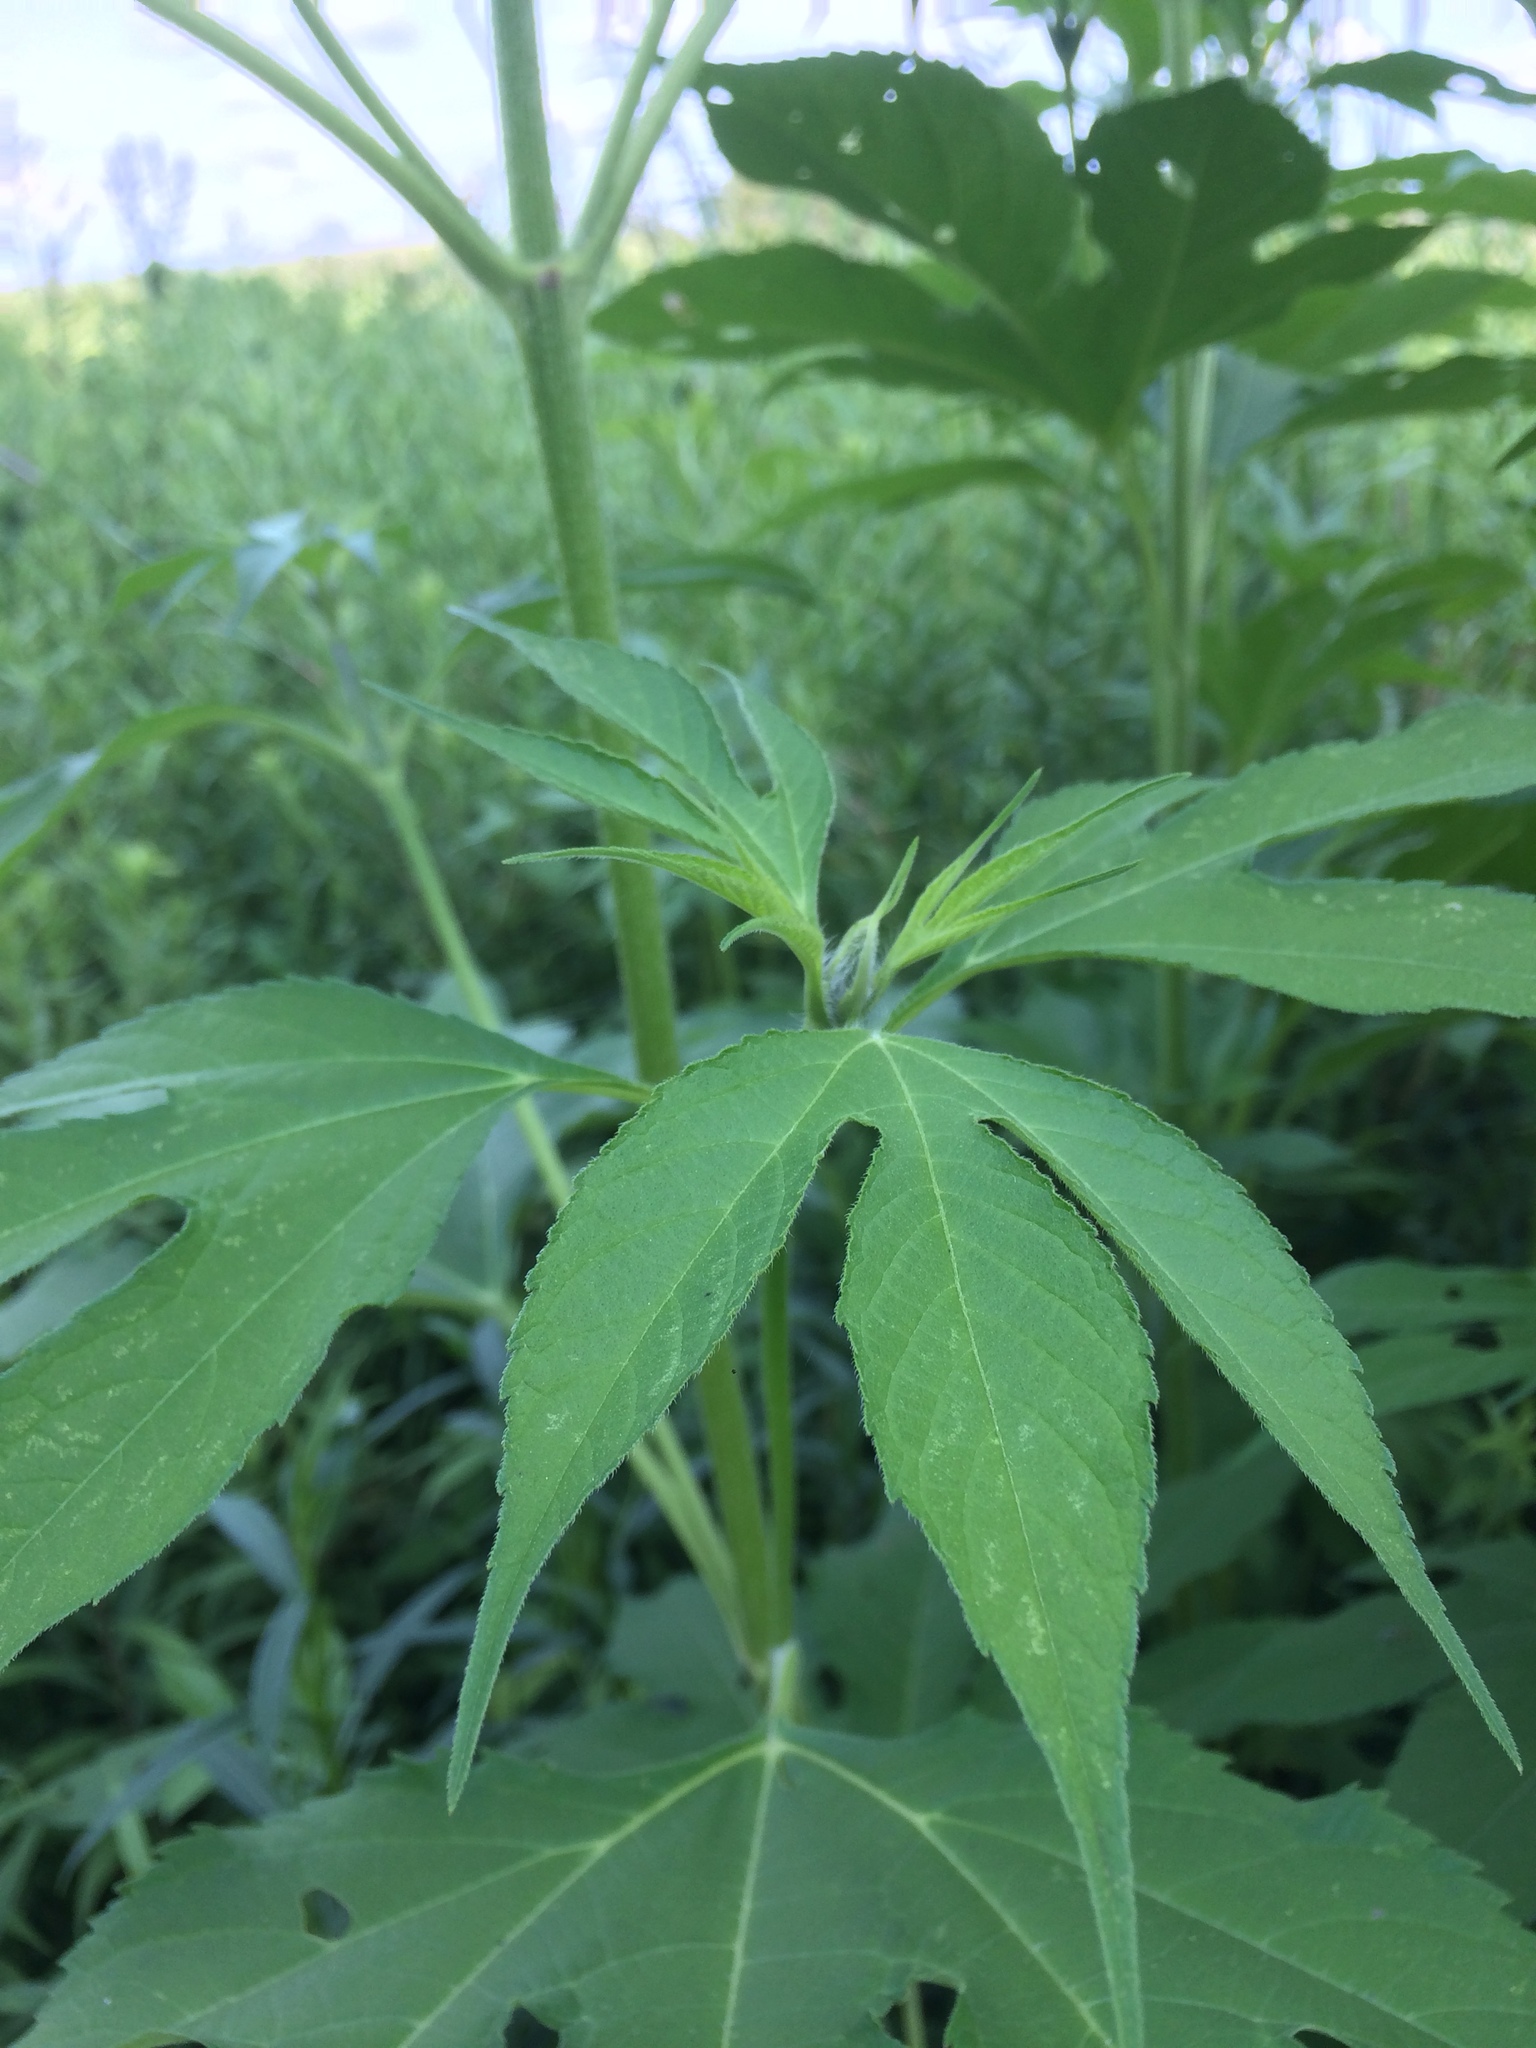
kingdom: Plantae
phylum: Tracheophyta
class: Magnoliopsida
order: Asterales
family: Asteraceae
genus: Ambrosia
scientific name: Ambrosia trifida
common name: Giant ragweed
